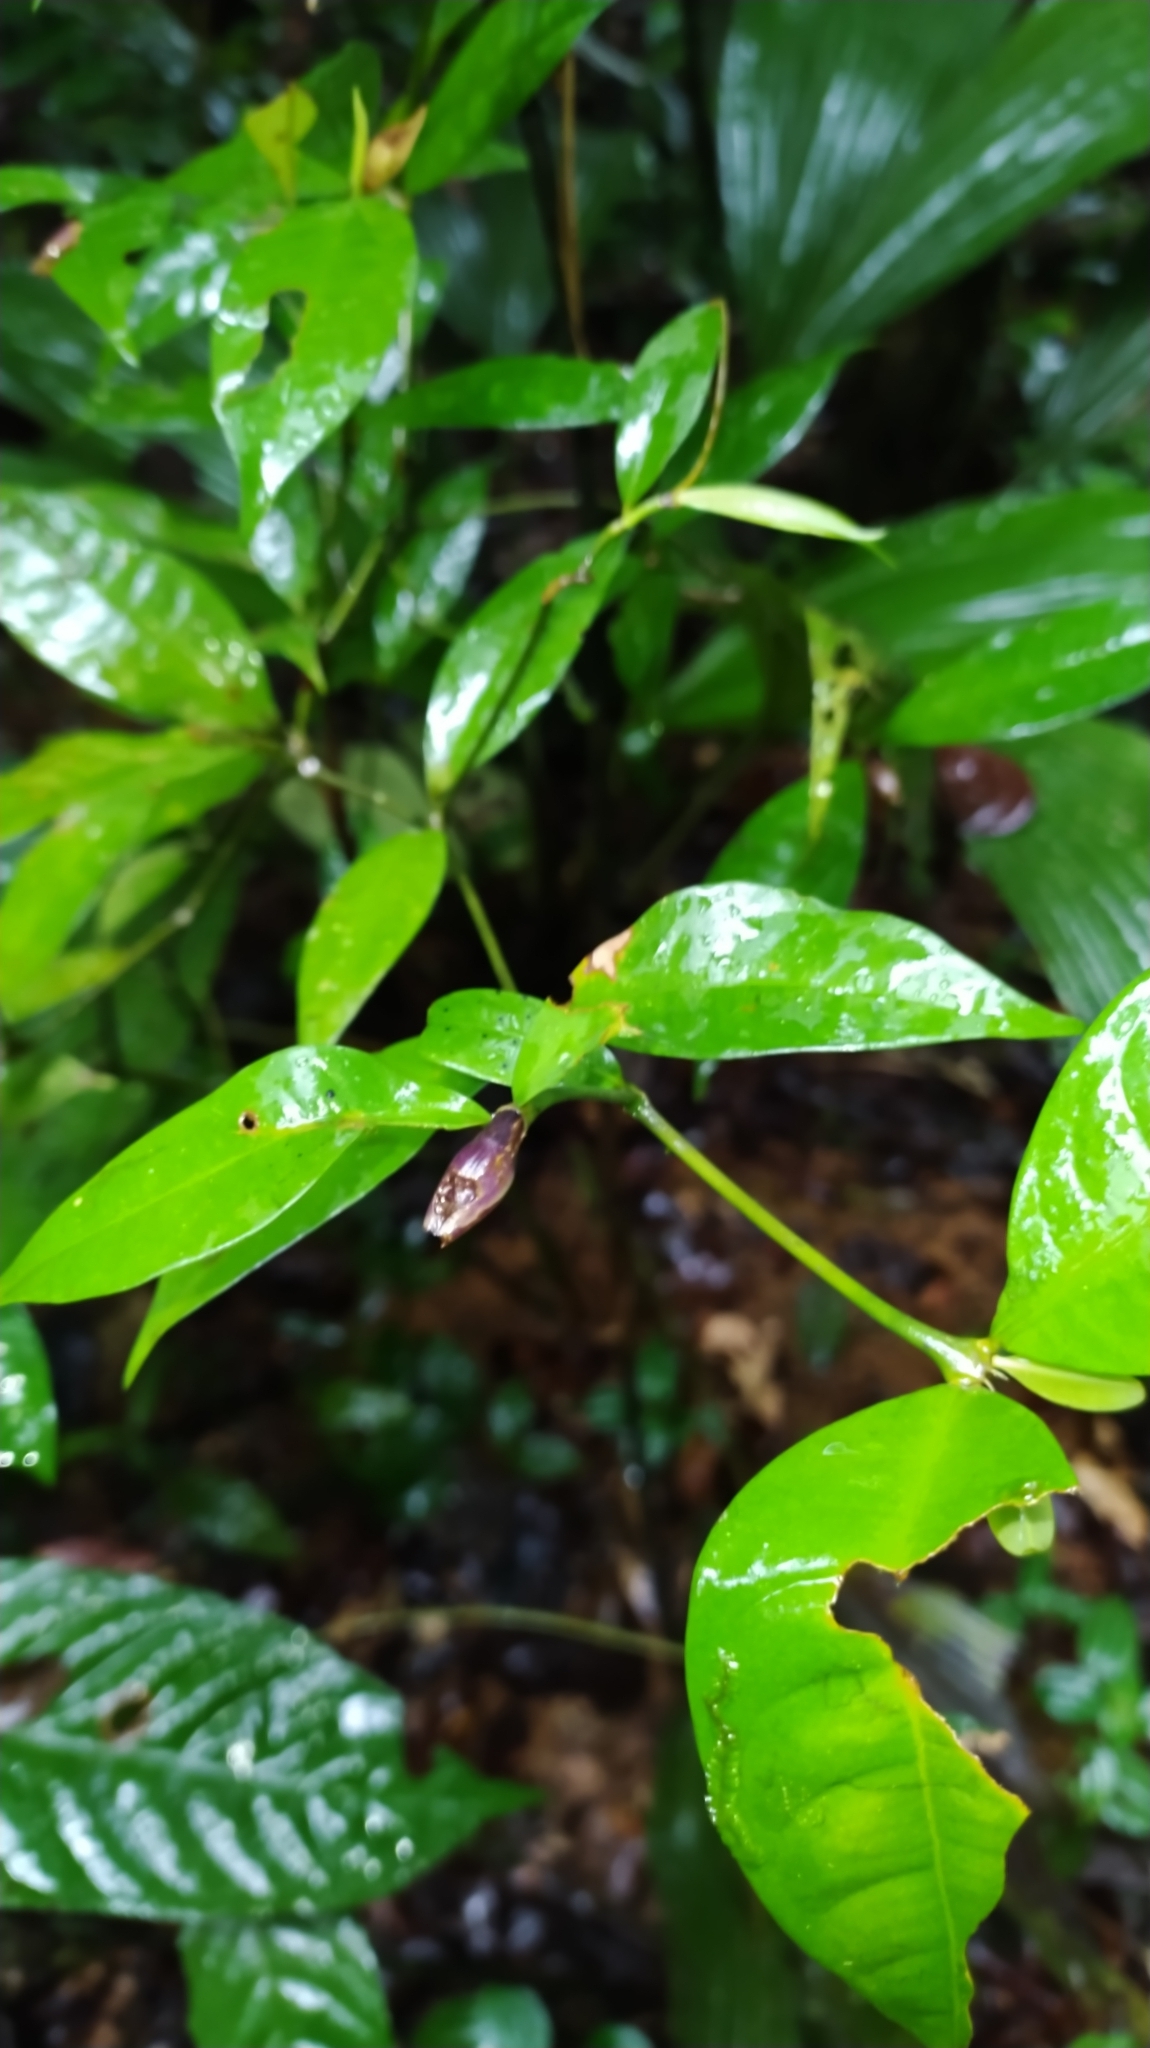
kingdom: Plantae
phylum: Tracheophyta
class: Magnoliopsida
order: Gentianales
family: Rubiaceae
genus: Palicourea
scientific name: Palicourea oblonga
